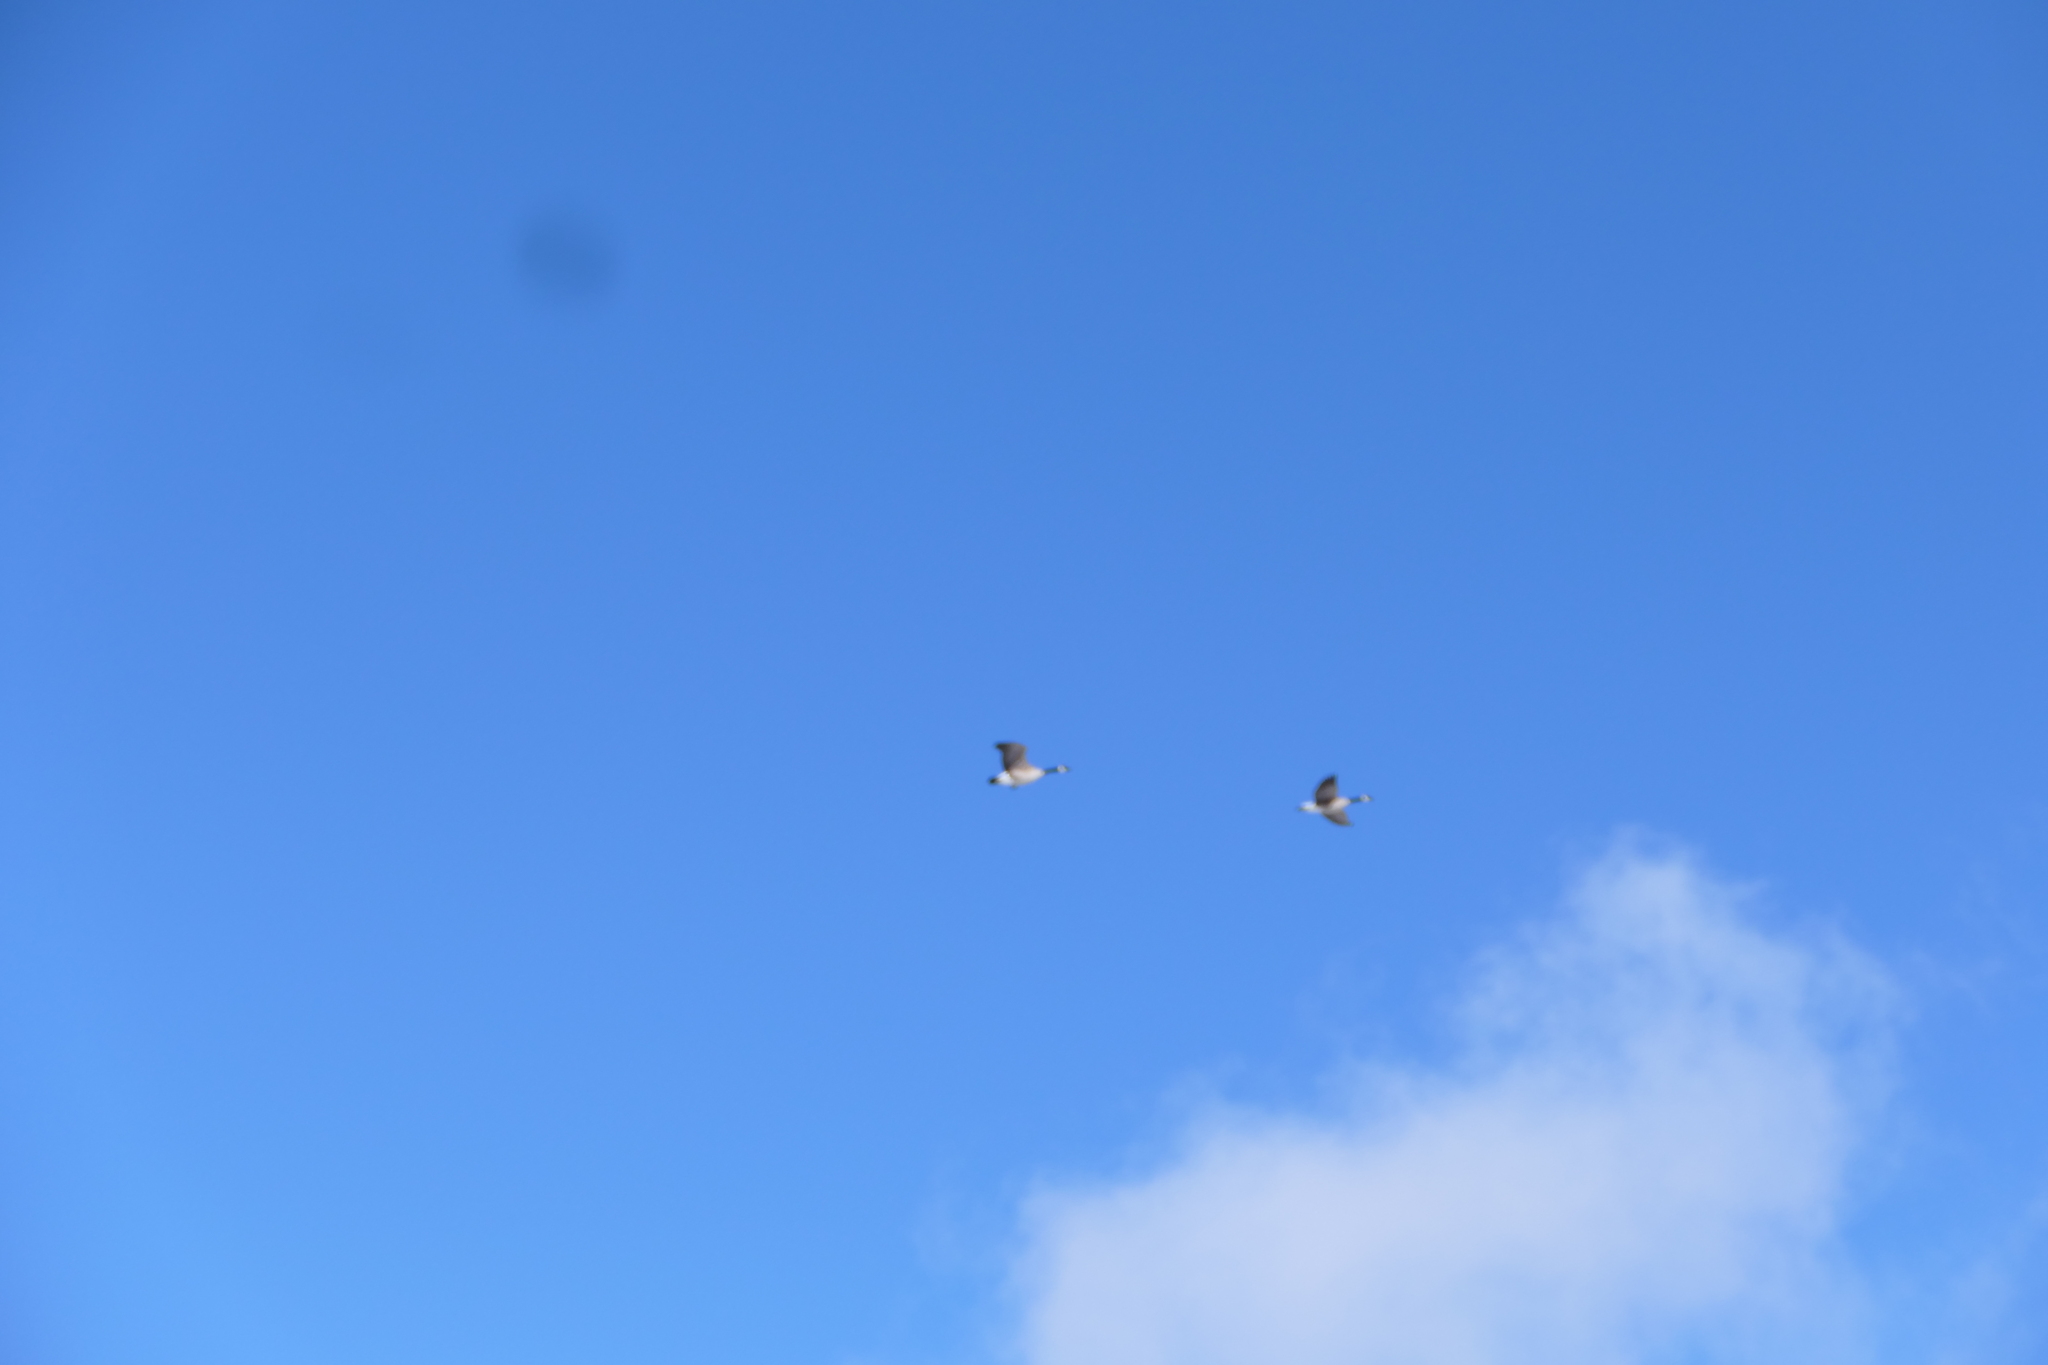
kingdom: Animalia
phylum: Chordata
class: Aves
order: Anseriformes
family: Anatidae
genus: Branta
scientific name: Branta canadensis
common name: Canada goose
